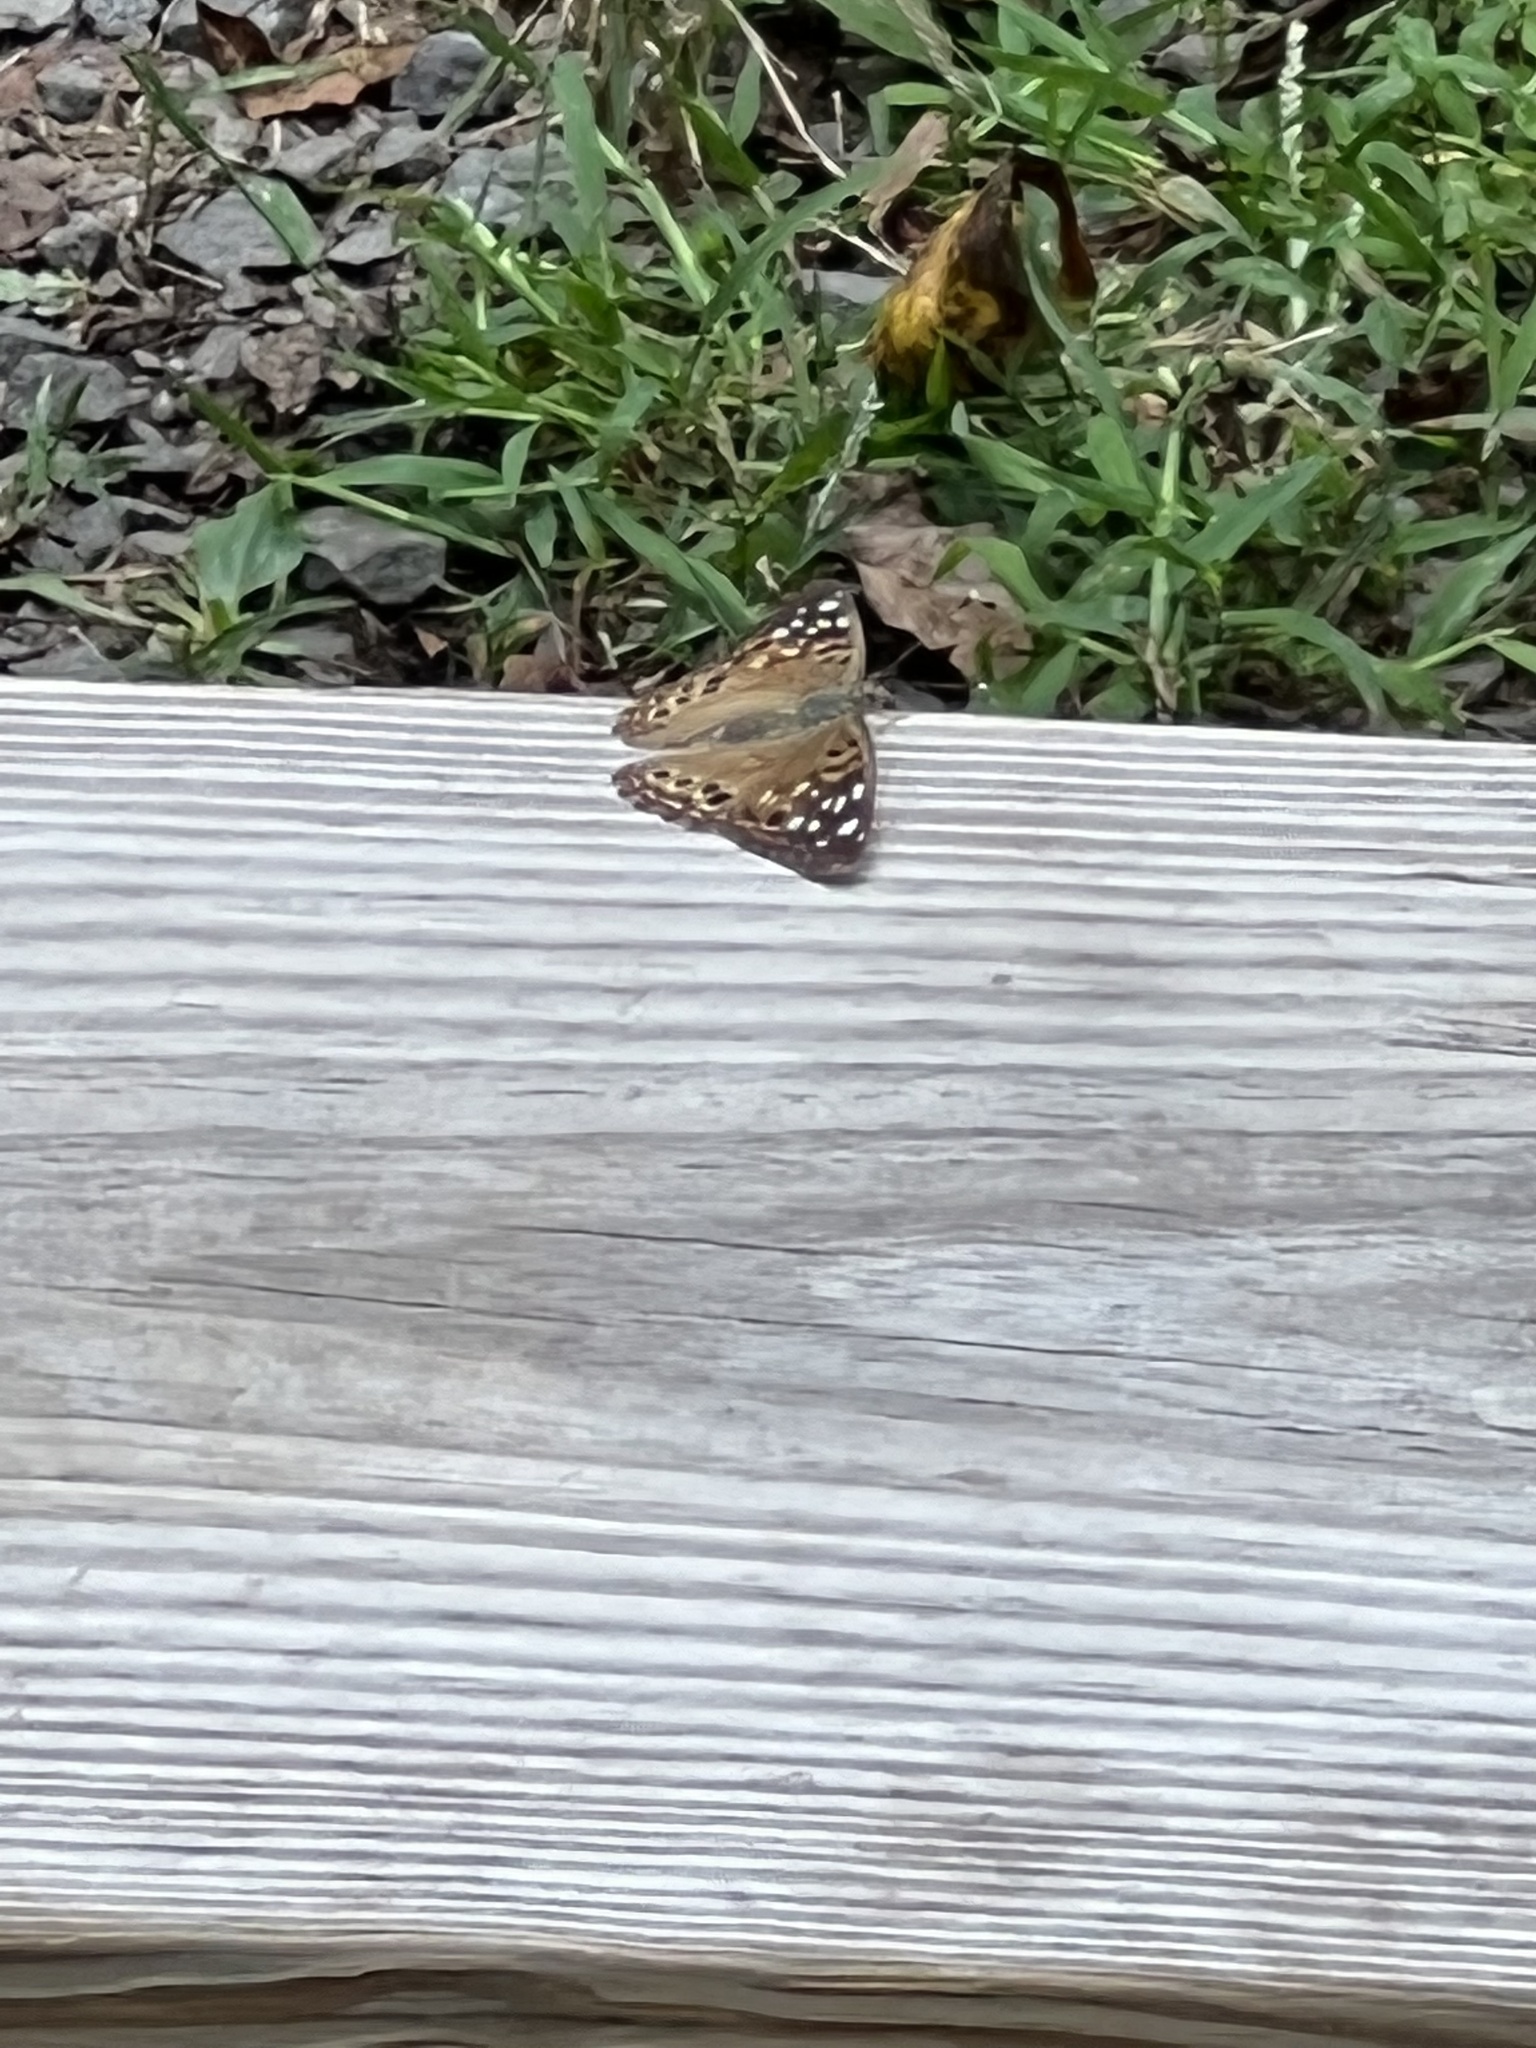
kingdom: Animalia
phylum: Arthropoda
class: Insecta
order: Lepidoptera
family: Nymphalidae
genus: Asterocampa
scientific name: Asterocampa celtis
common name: Hackberry emperor
